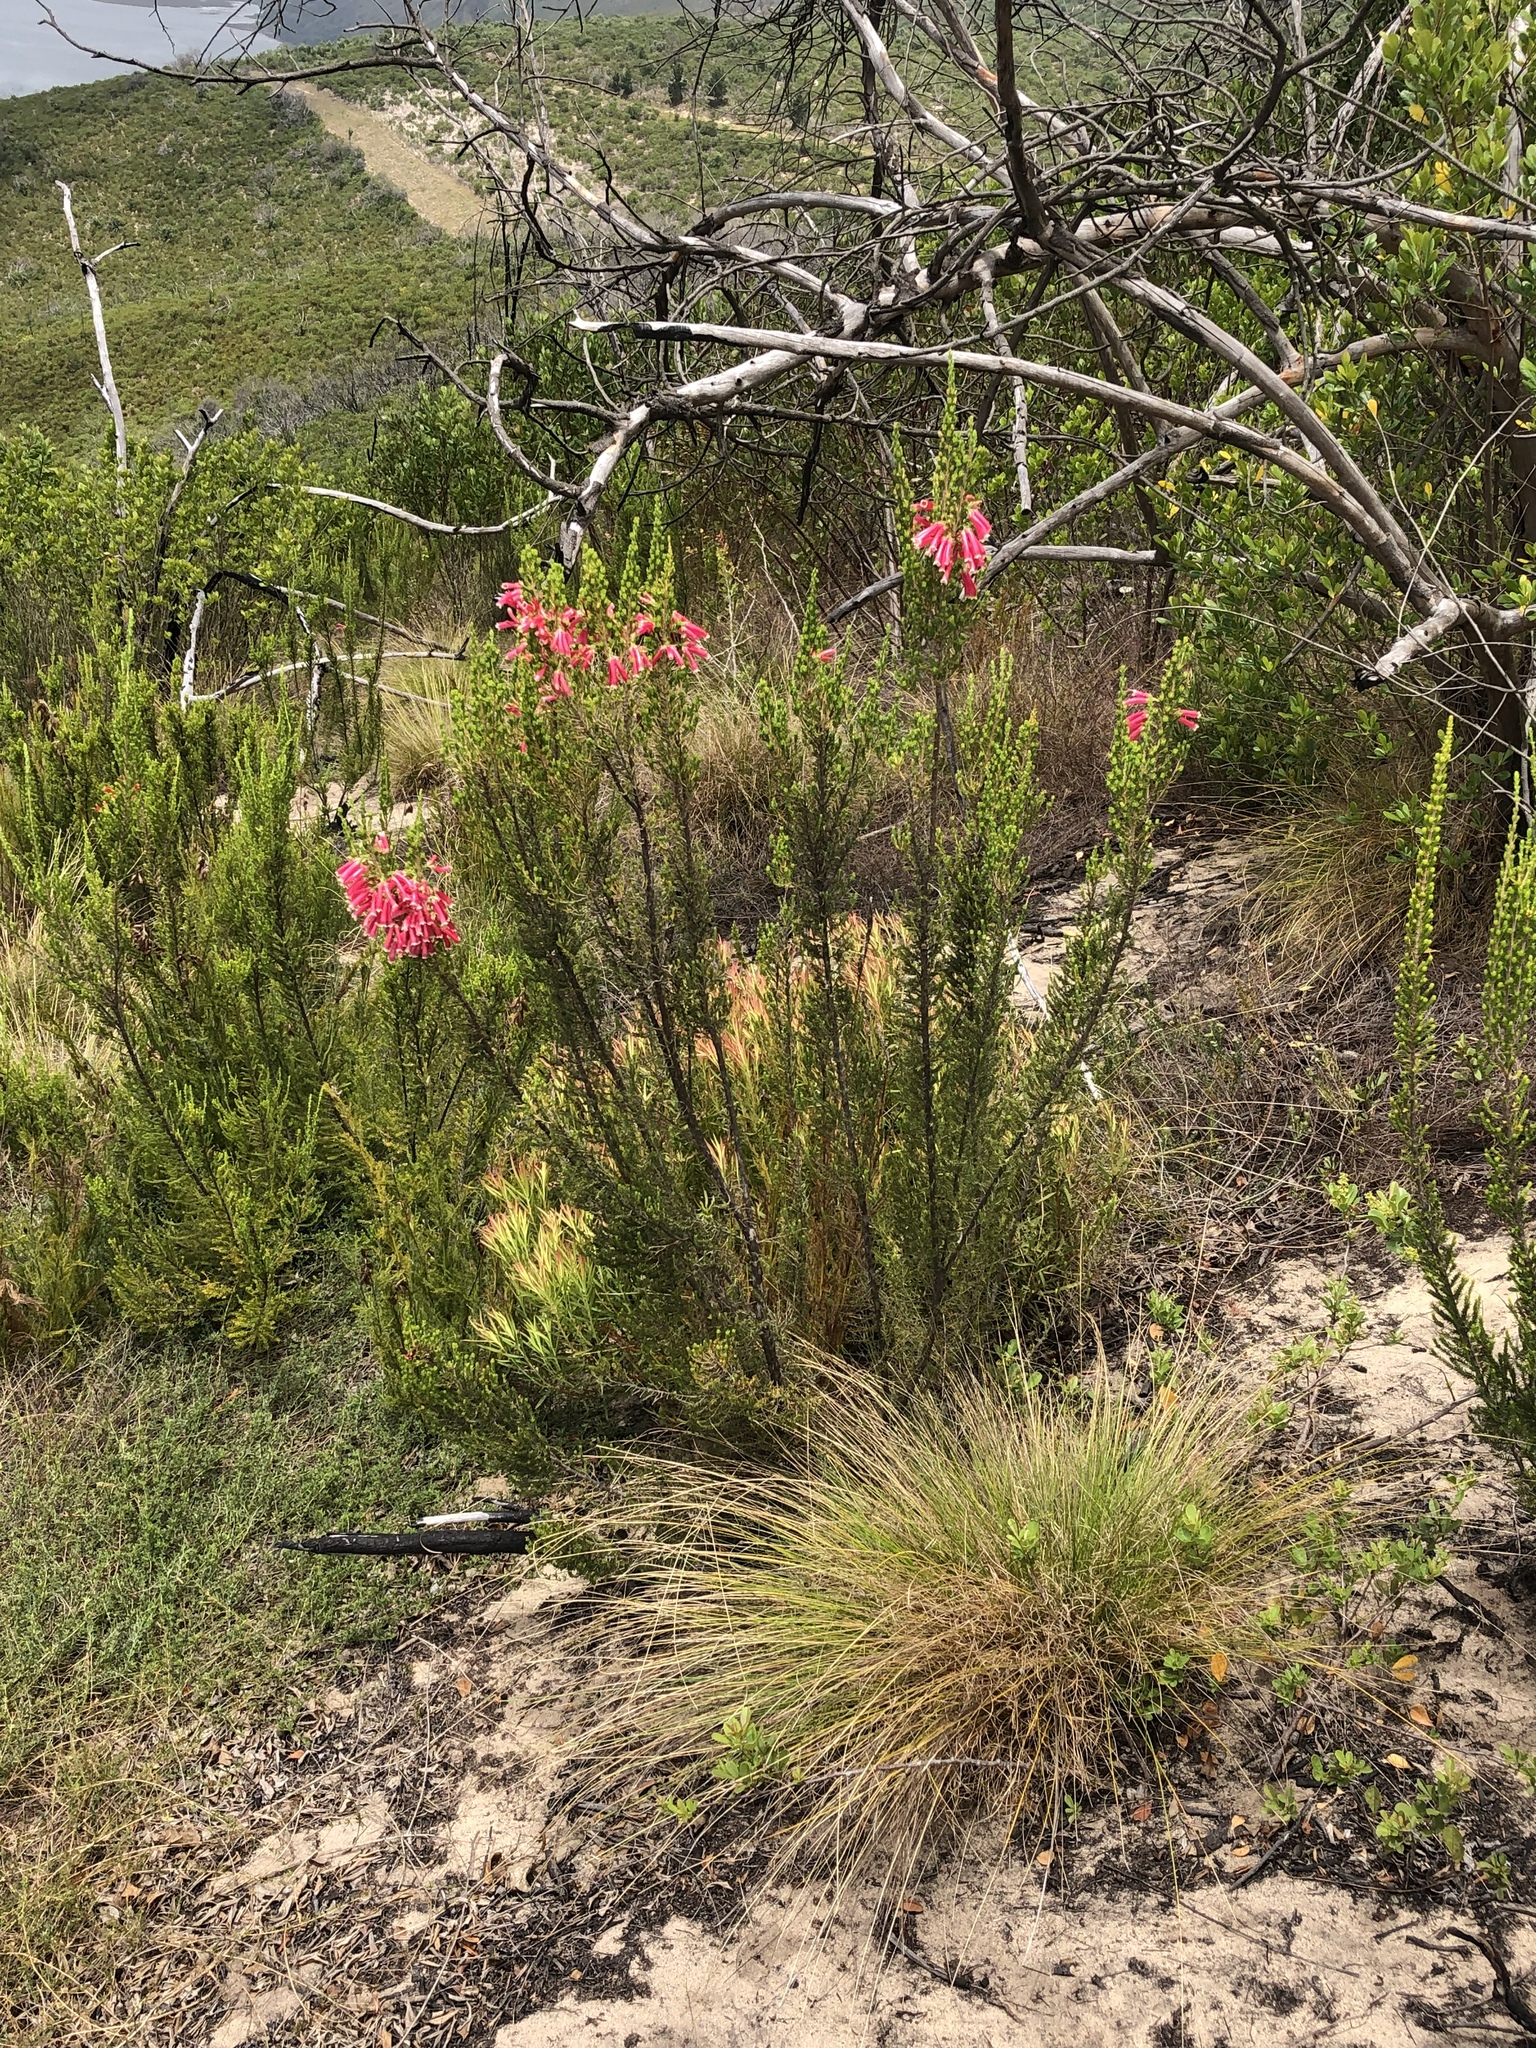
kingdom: Plantae
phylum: Tracheophyta
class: Magnoliopsida
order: Ericales
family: Ericaceae
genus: Erica
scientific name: Erica discolor
